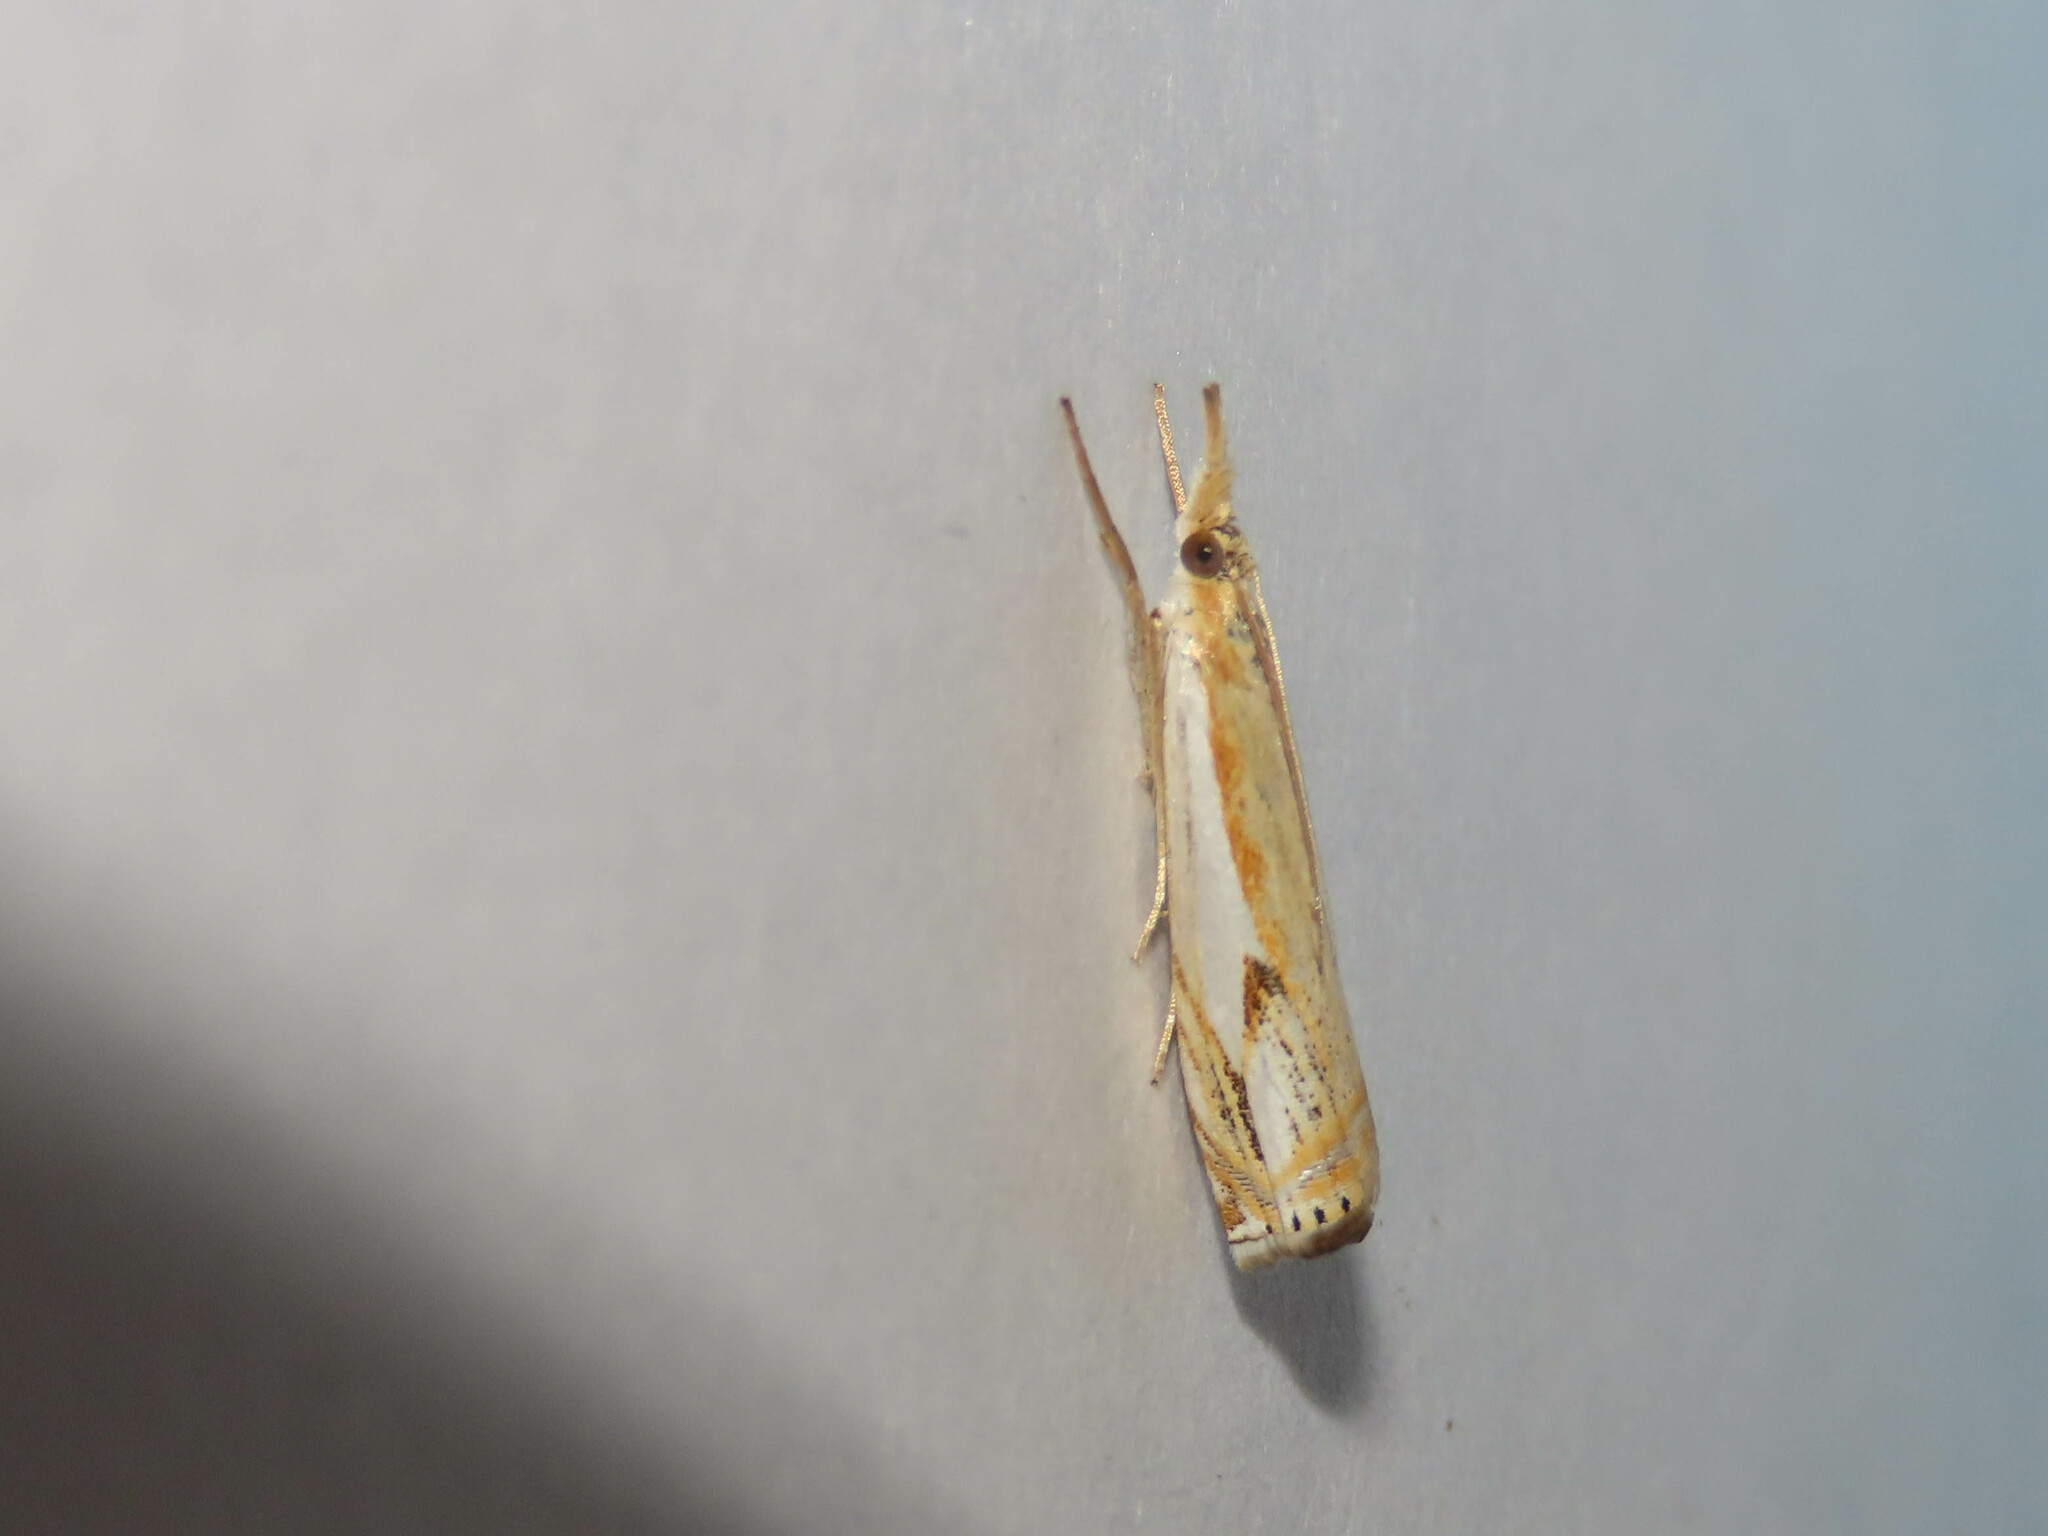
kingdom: Animalia
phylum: Arthropoda
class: Insecta
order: Lepidoptera
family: Crambidae
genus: Crambus
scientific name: Crambus agitatellus
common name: Double-banded grass-veneer
